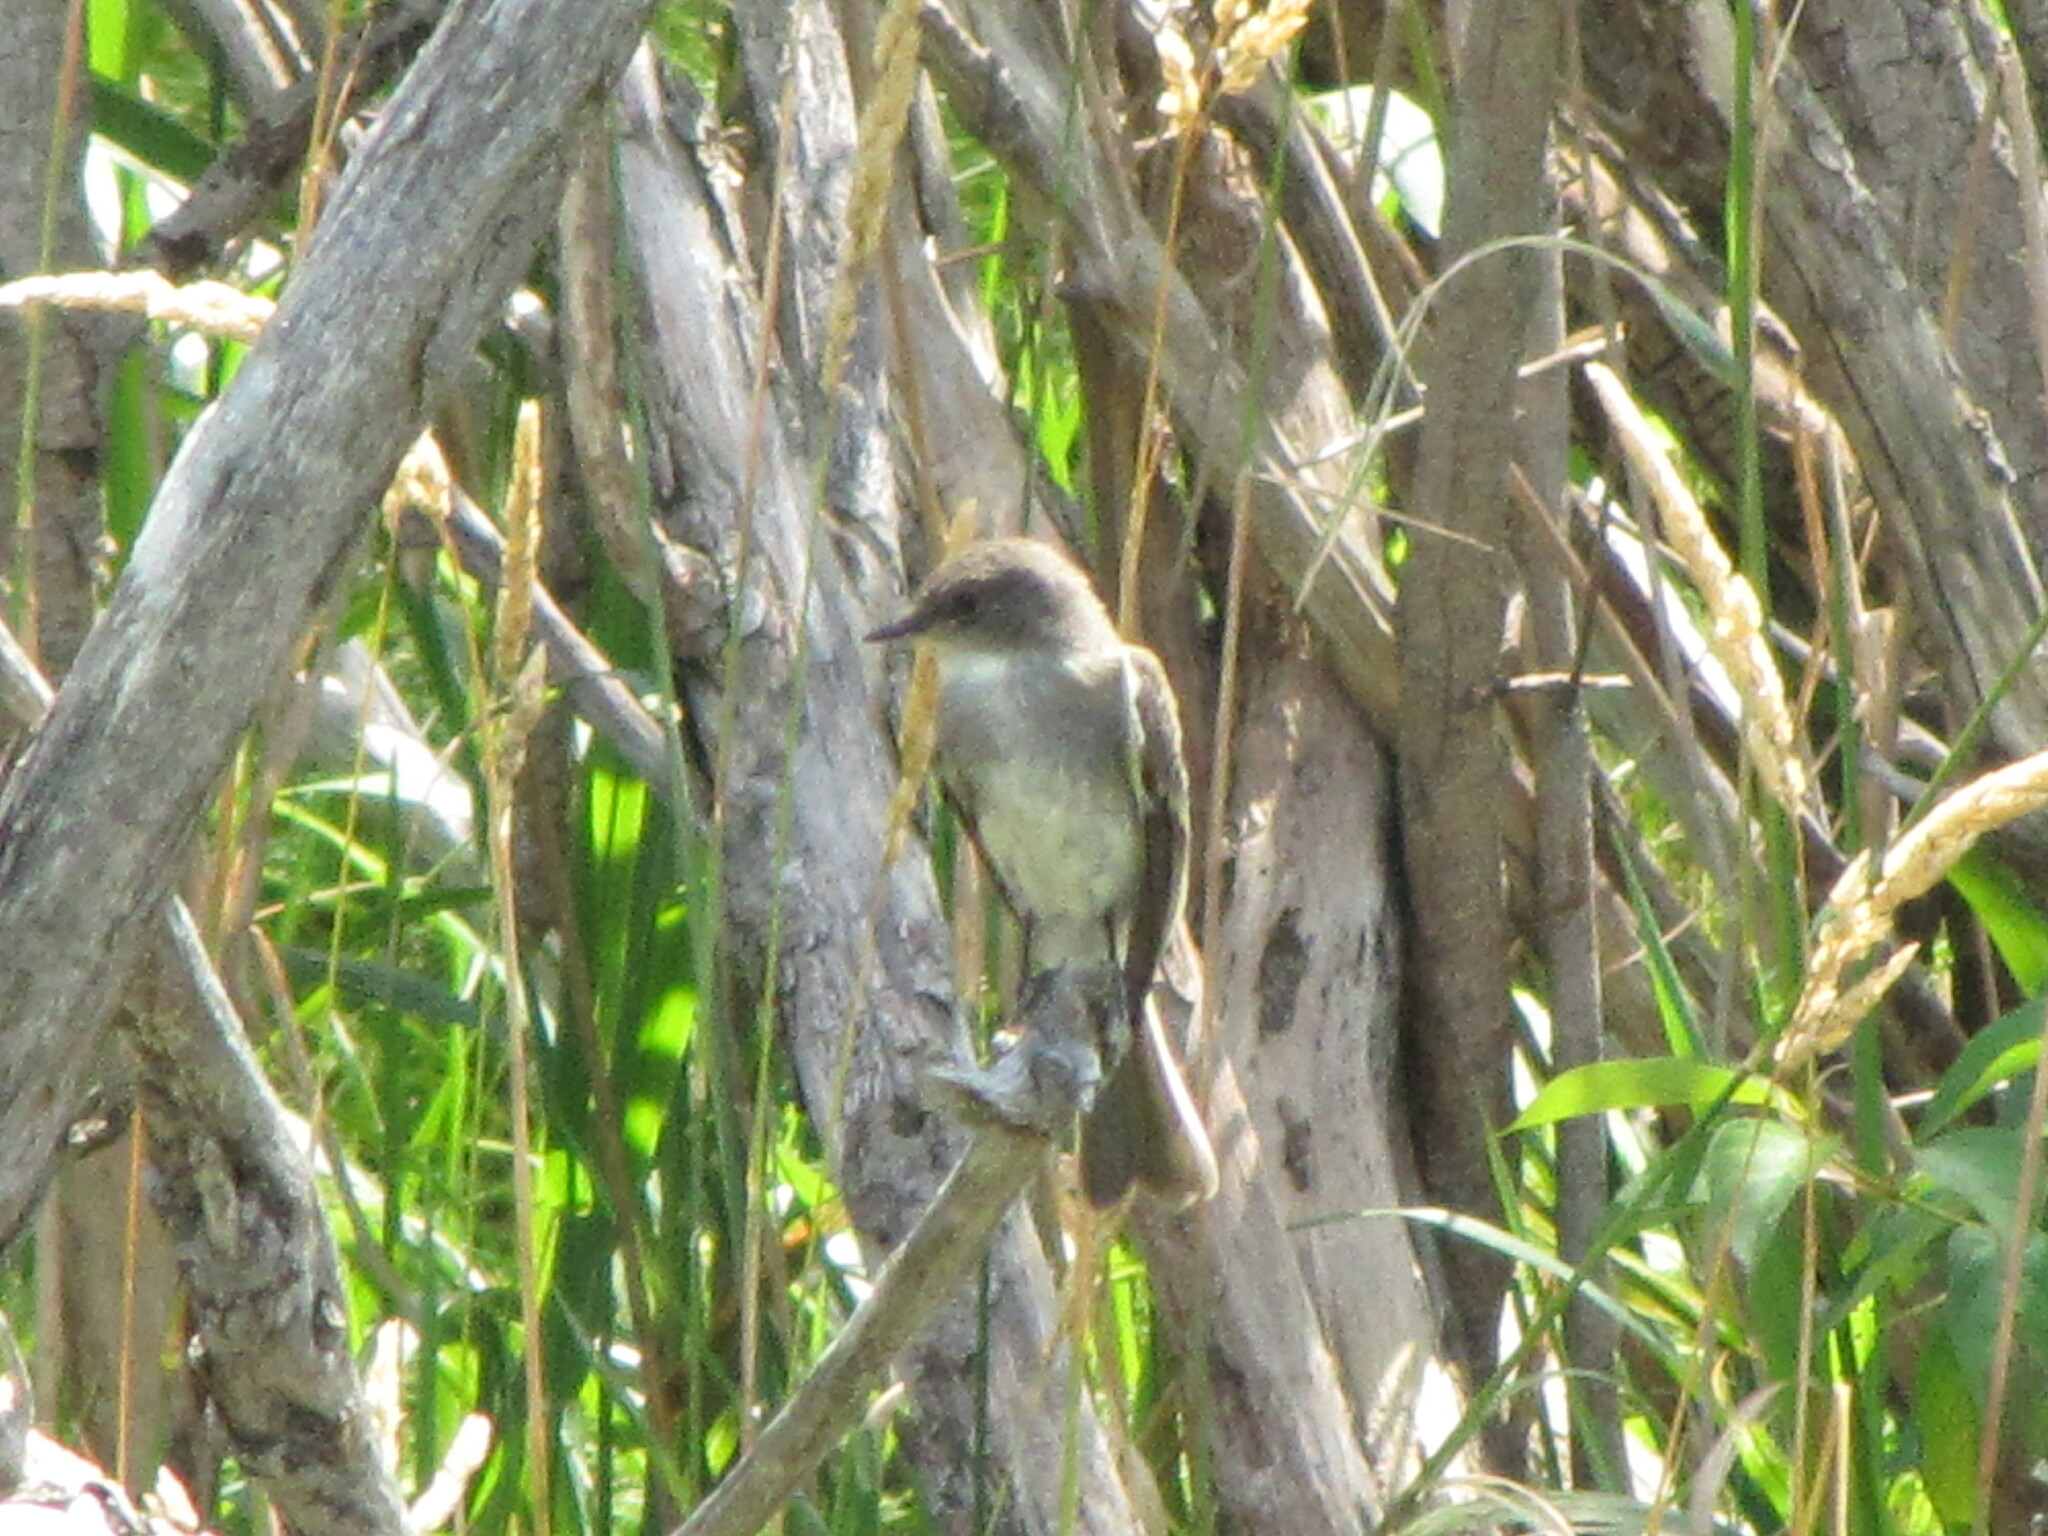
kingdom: Animalia
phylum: Chordata
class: Aves
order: Passeriformes
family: Tyrannidae
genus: Sayornis
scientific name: Sayornis phoebe
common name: Eastern phoebe
